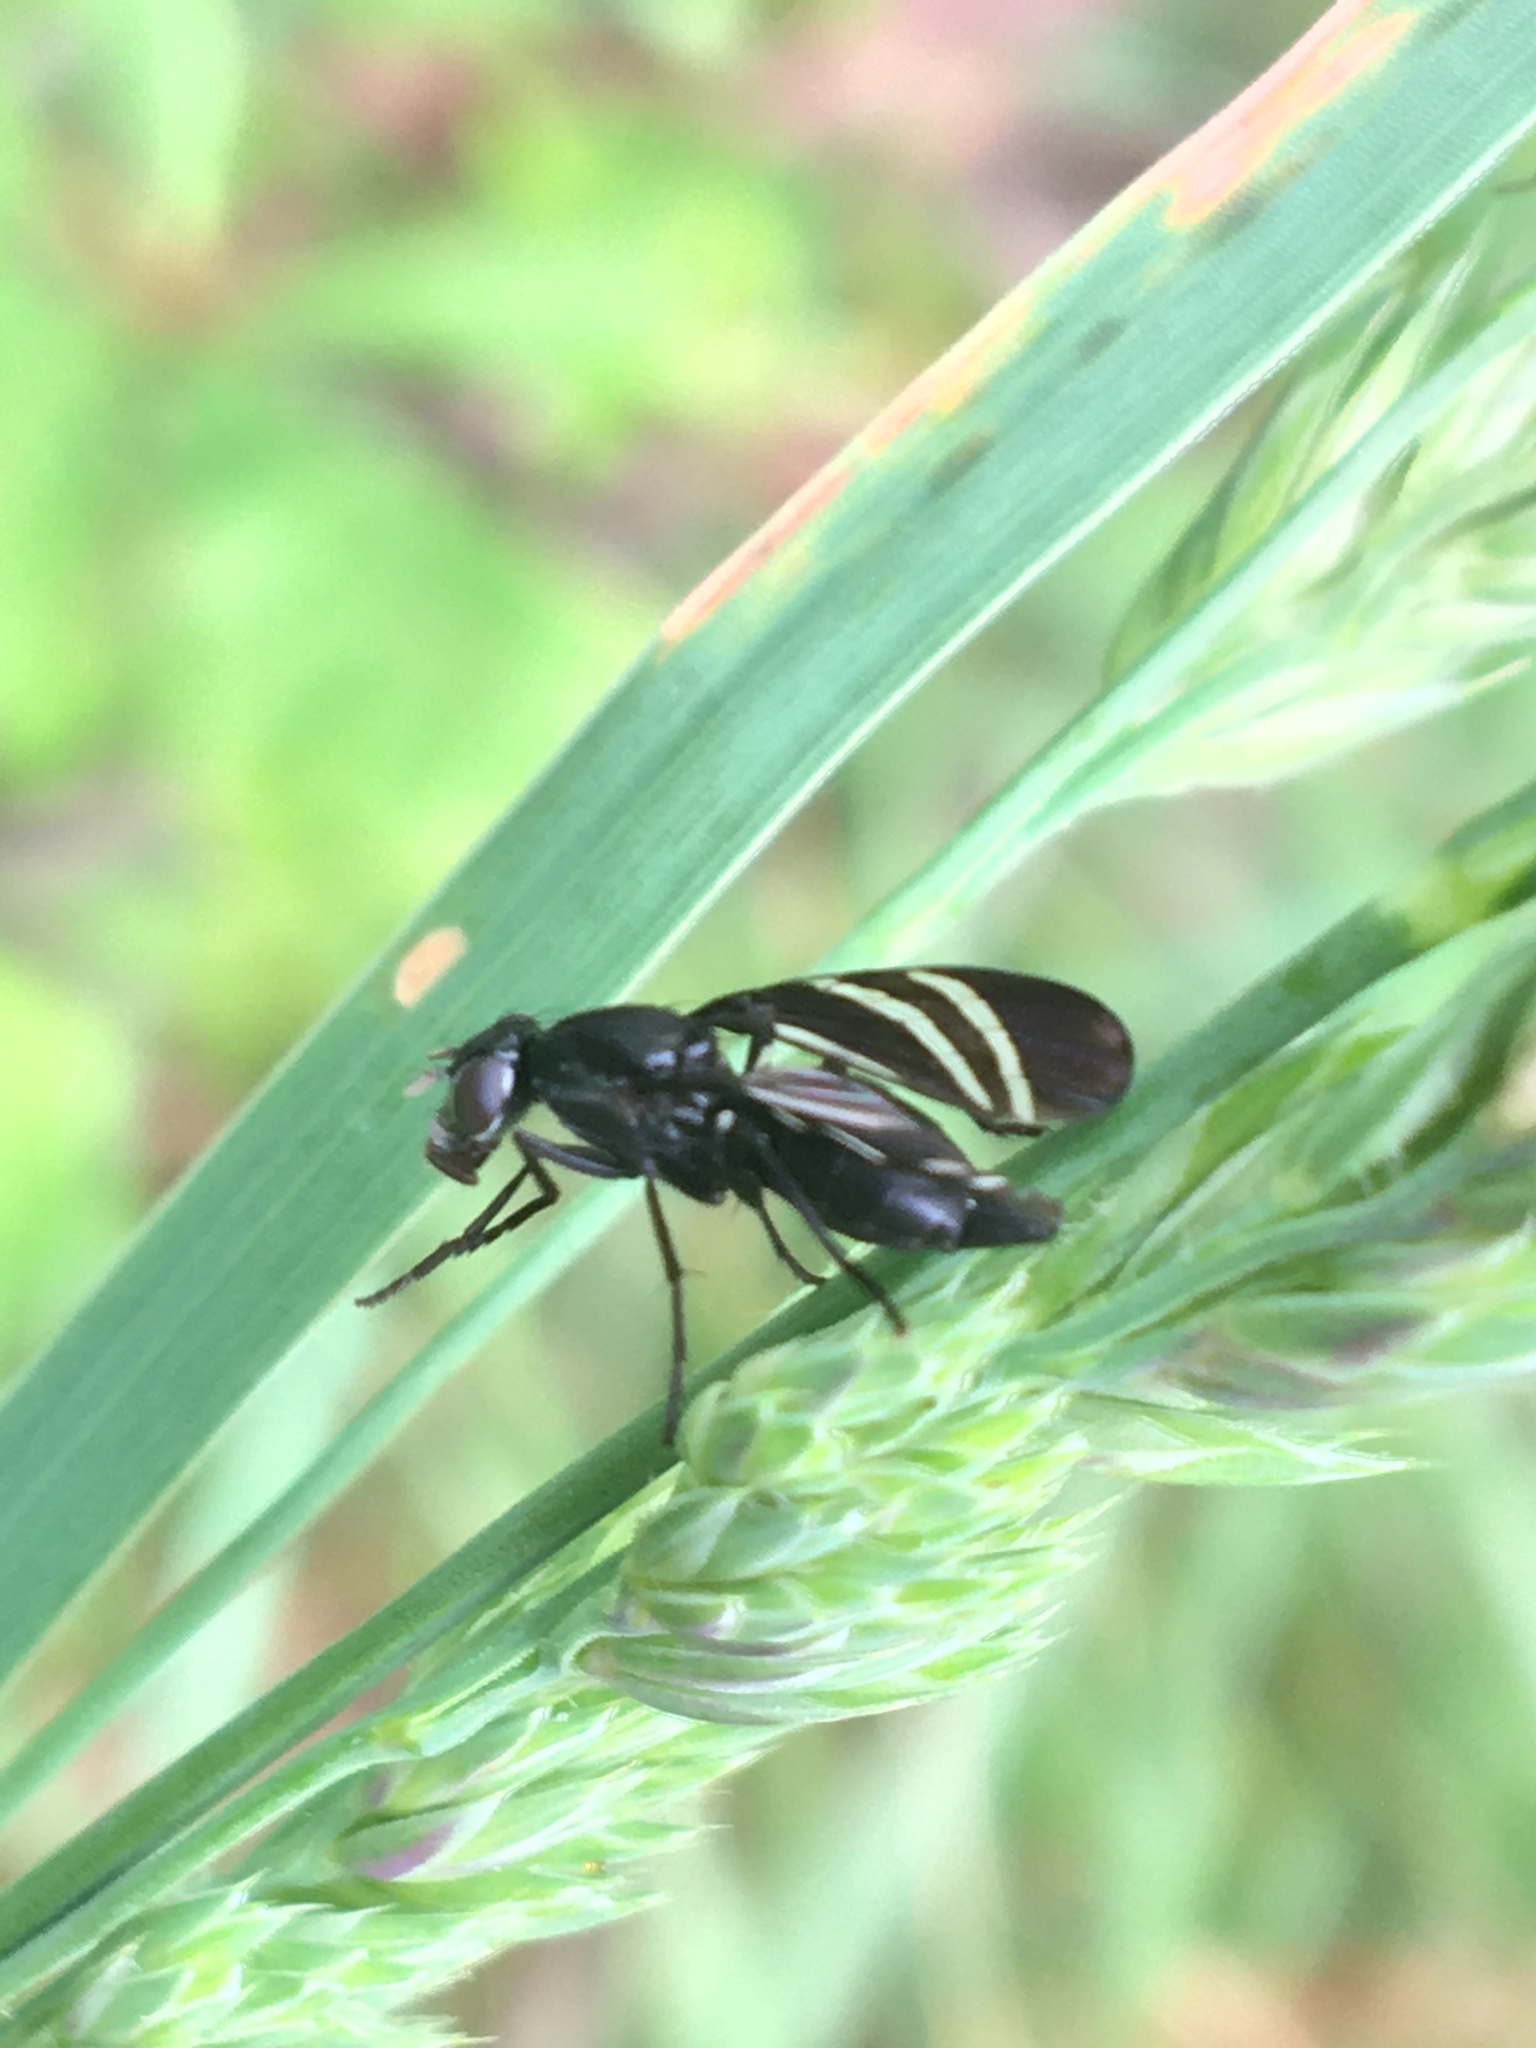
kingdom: Animalia
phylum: Arthropoda
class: Insecta
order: Diptera
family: Ulidiidae
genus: Tritoxa
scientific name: Tritoxa flexa
